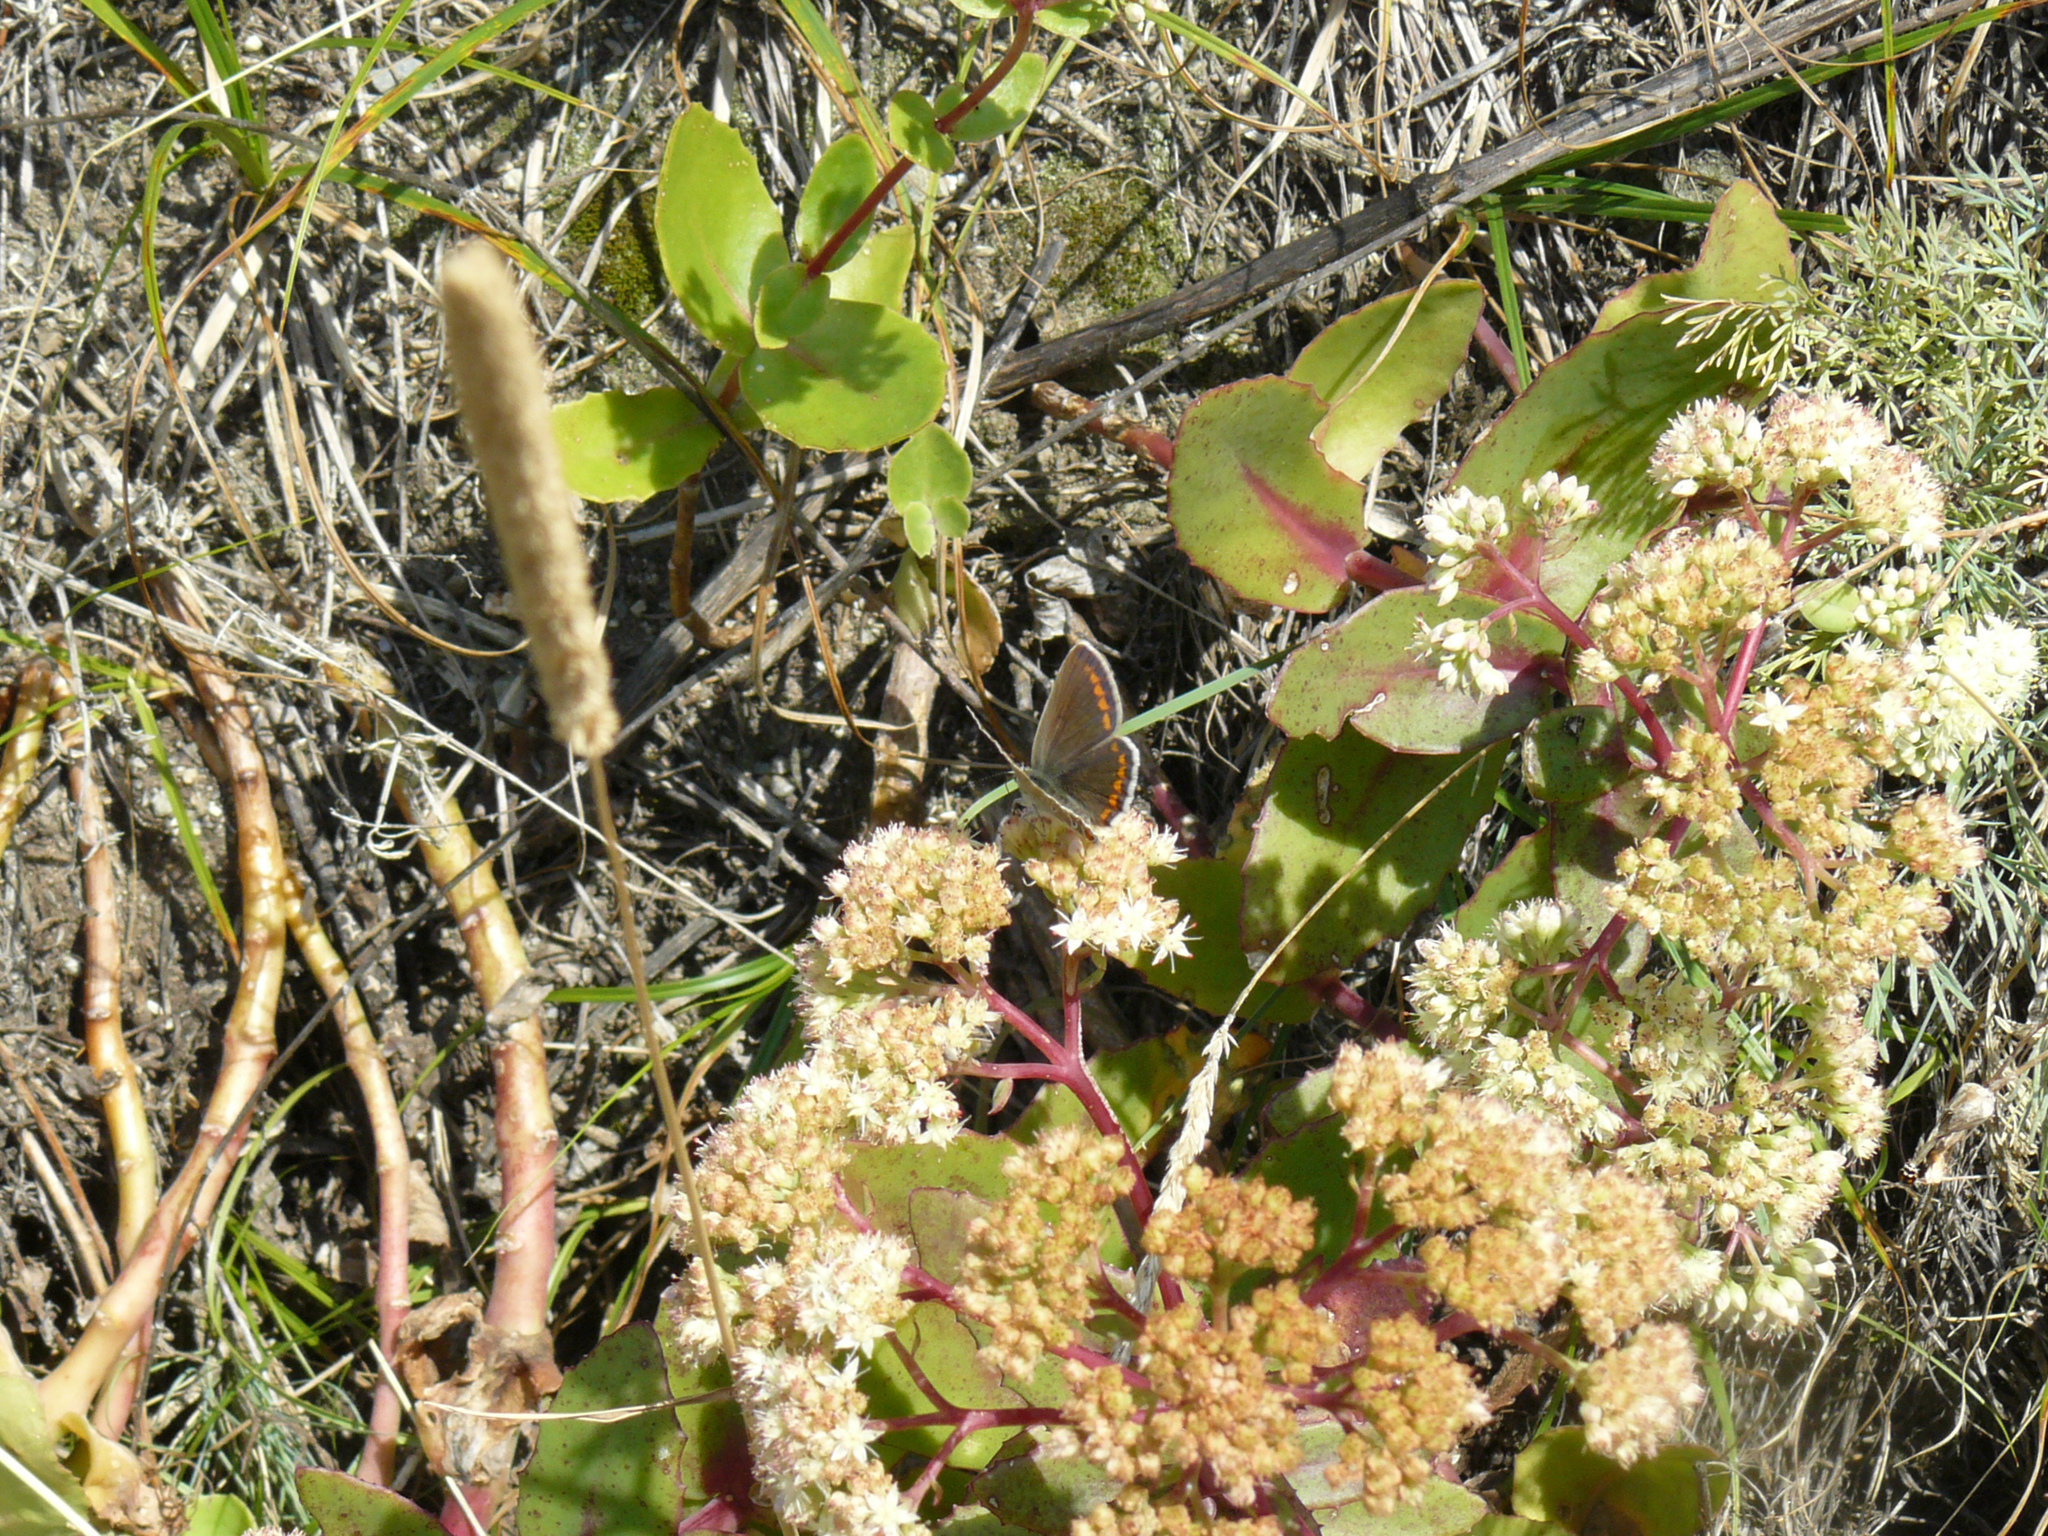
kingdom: Animalia
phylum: Arthropoda
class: Insecta
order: Lepidoptera
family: Lycaenidae
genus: Polyommatus
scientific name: Polyommatus icarus
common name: Common blue
